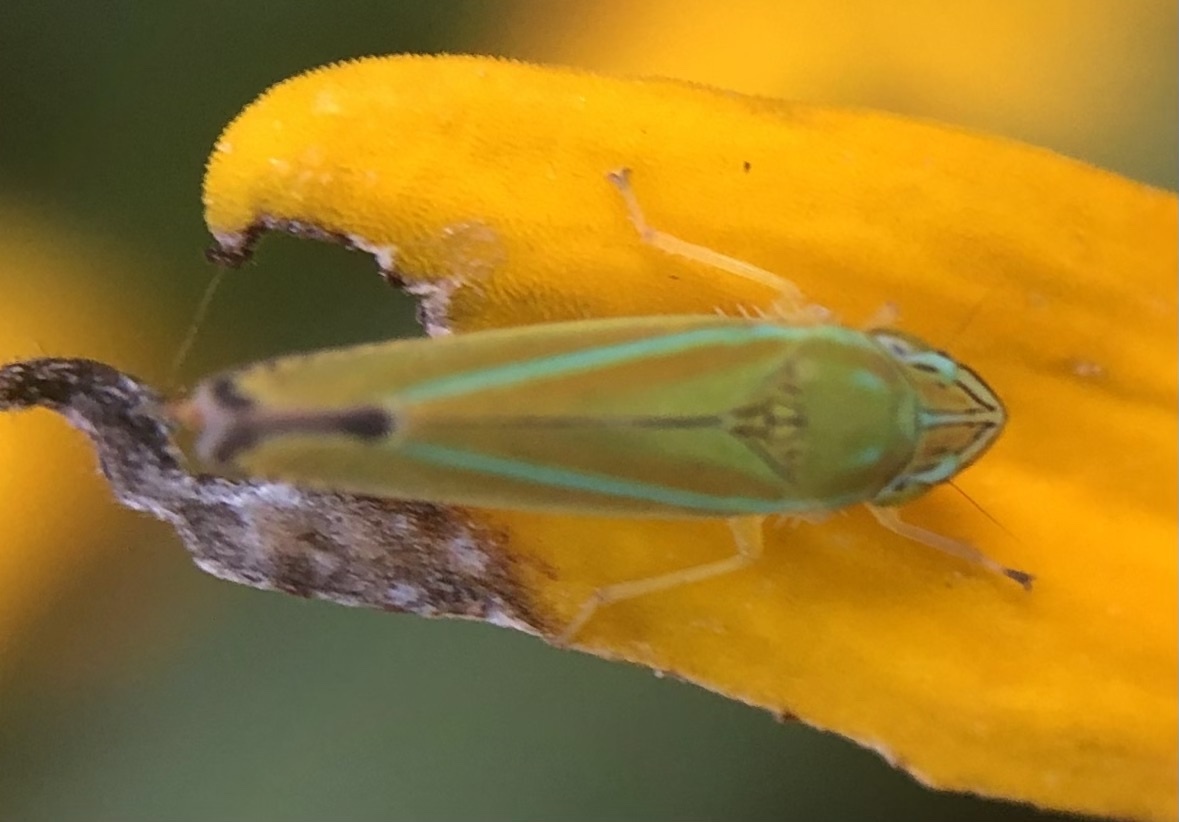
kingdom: Animalia
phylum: Arthropoda
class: Insecta
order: Hemiptera
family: Cicadellidae
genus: Graphocephala
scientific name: Graphocephala versuta
